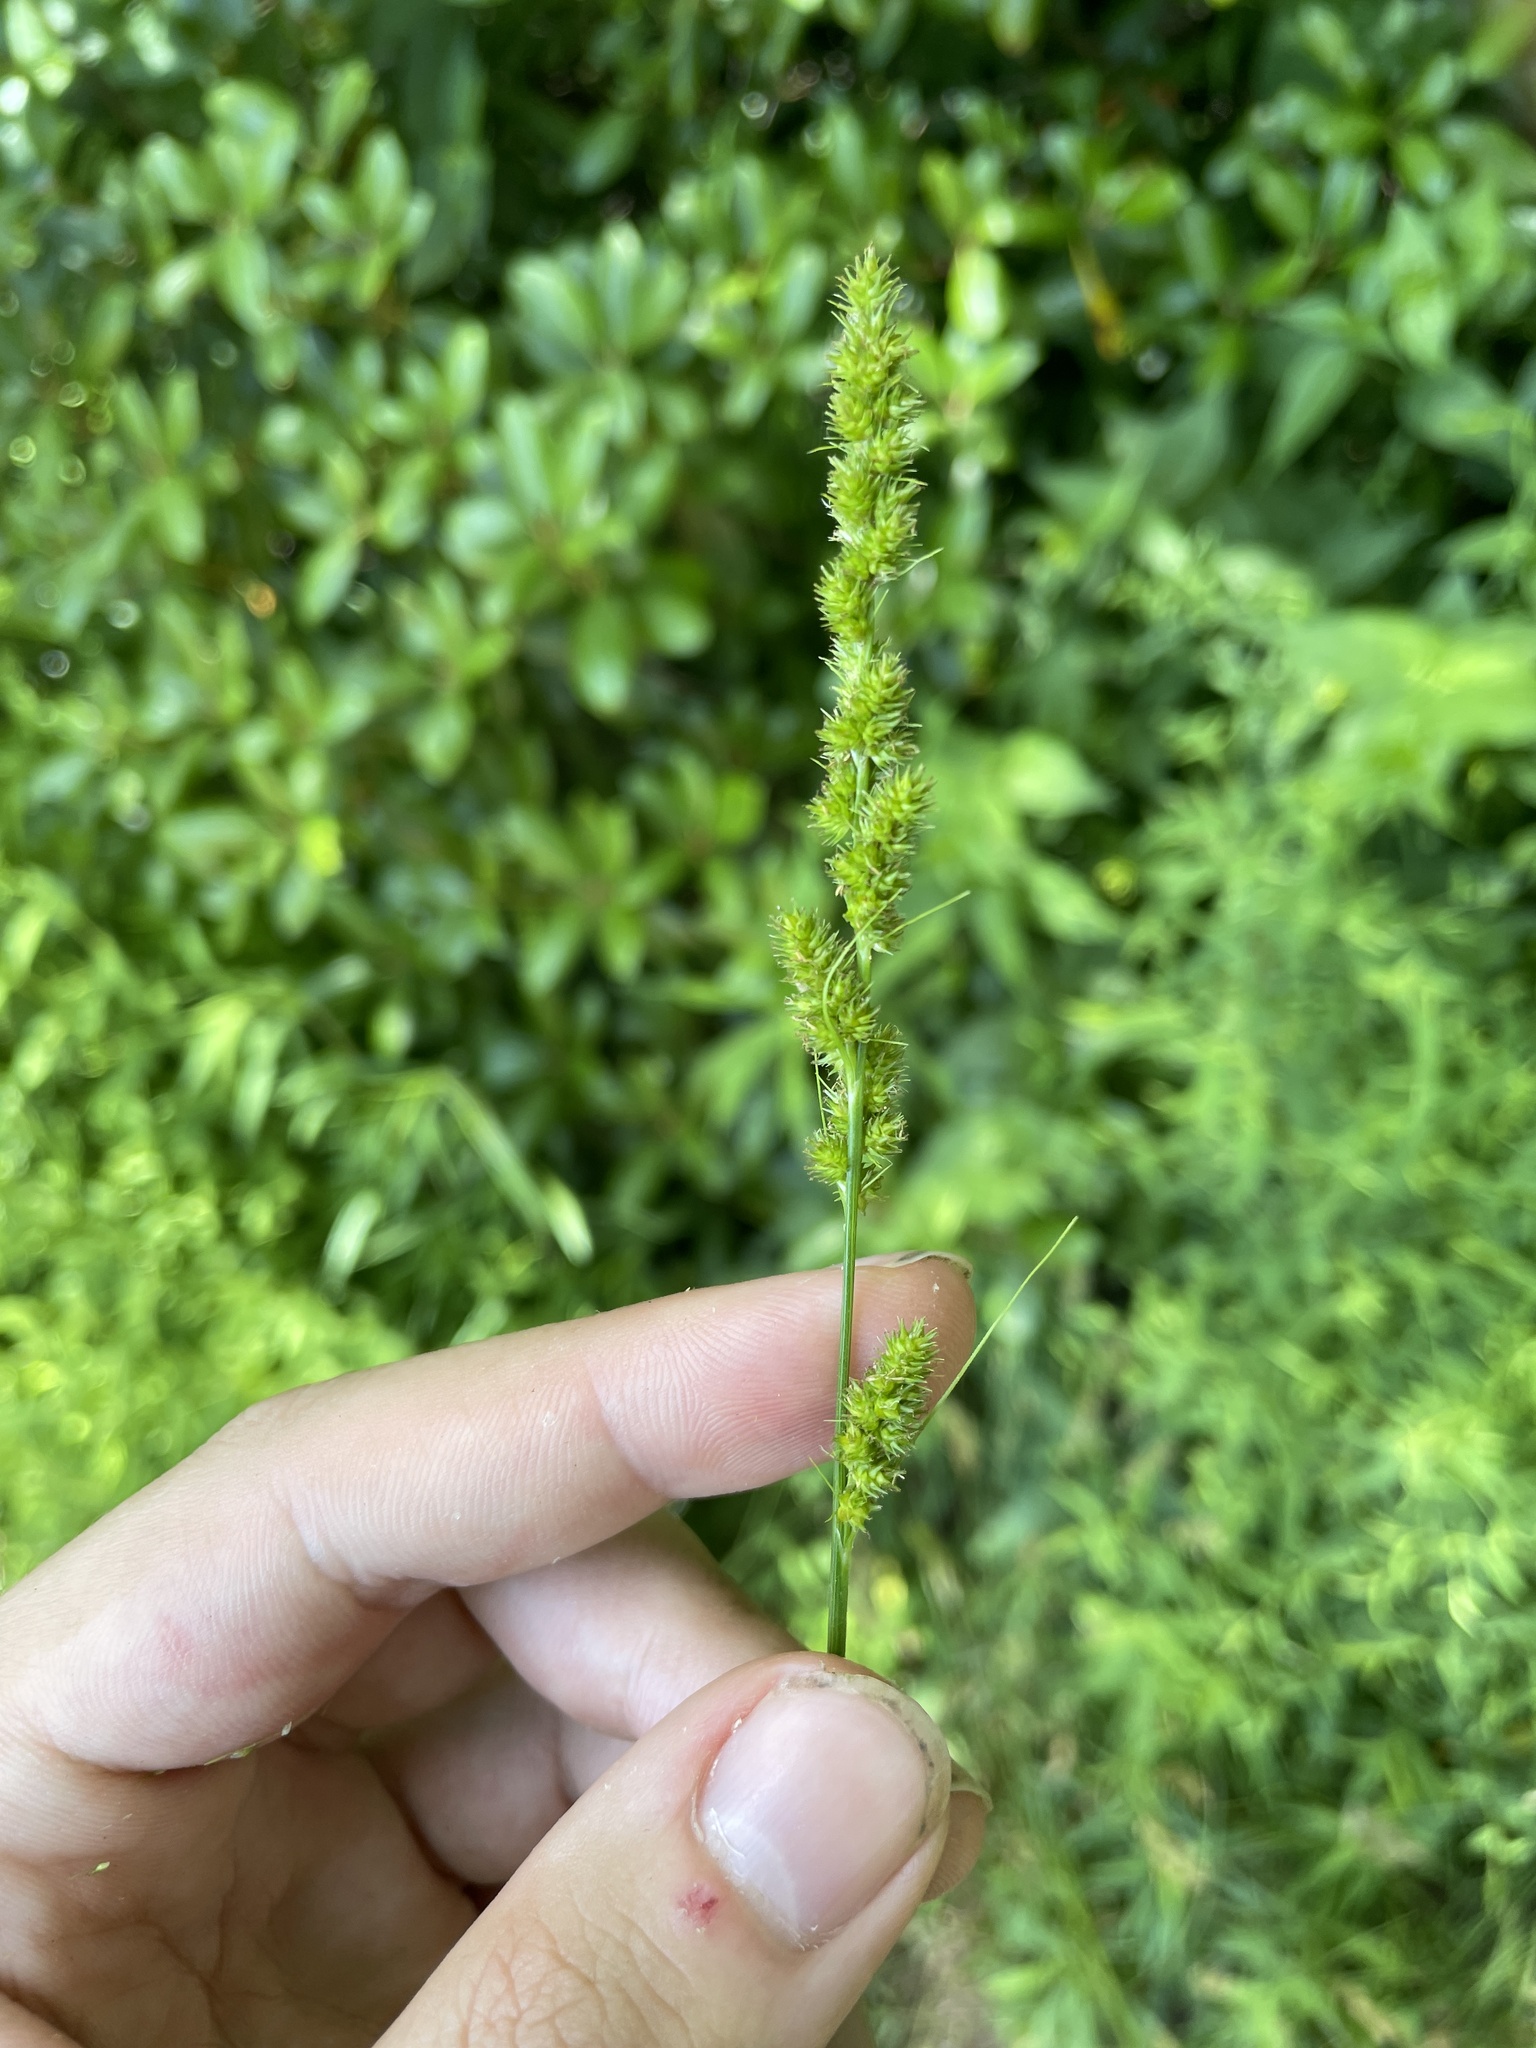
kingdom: Plantae
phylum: Tracheophyta
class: Liliopsida
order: Poales
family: Cyperaceae
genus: Carex
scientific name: Carex vulpinoidea
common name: American fox-sedge
